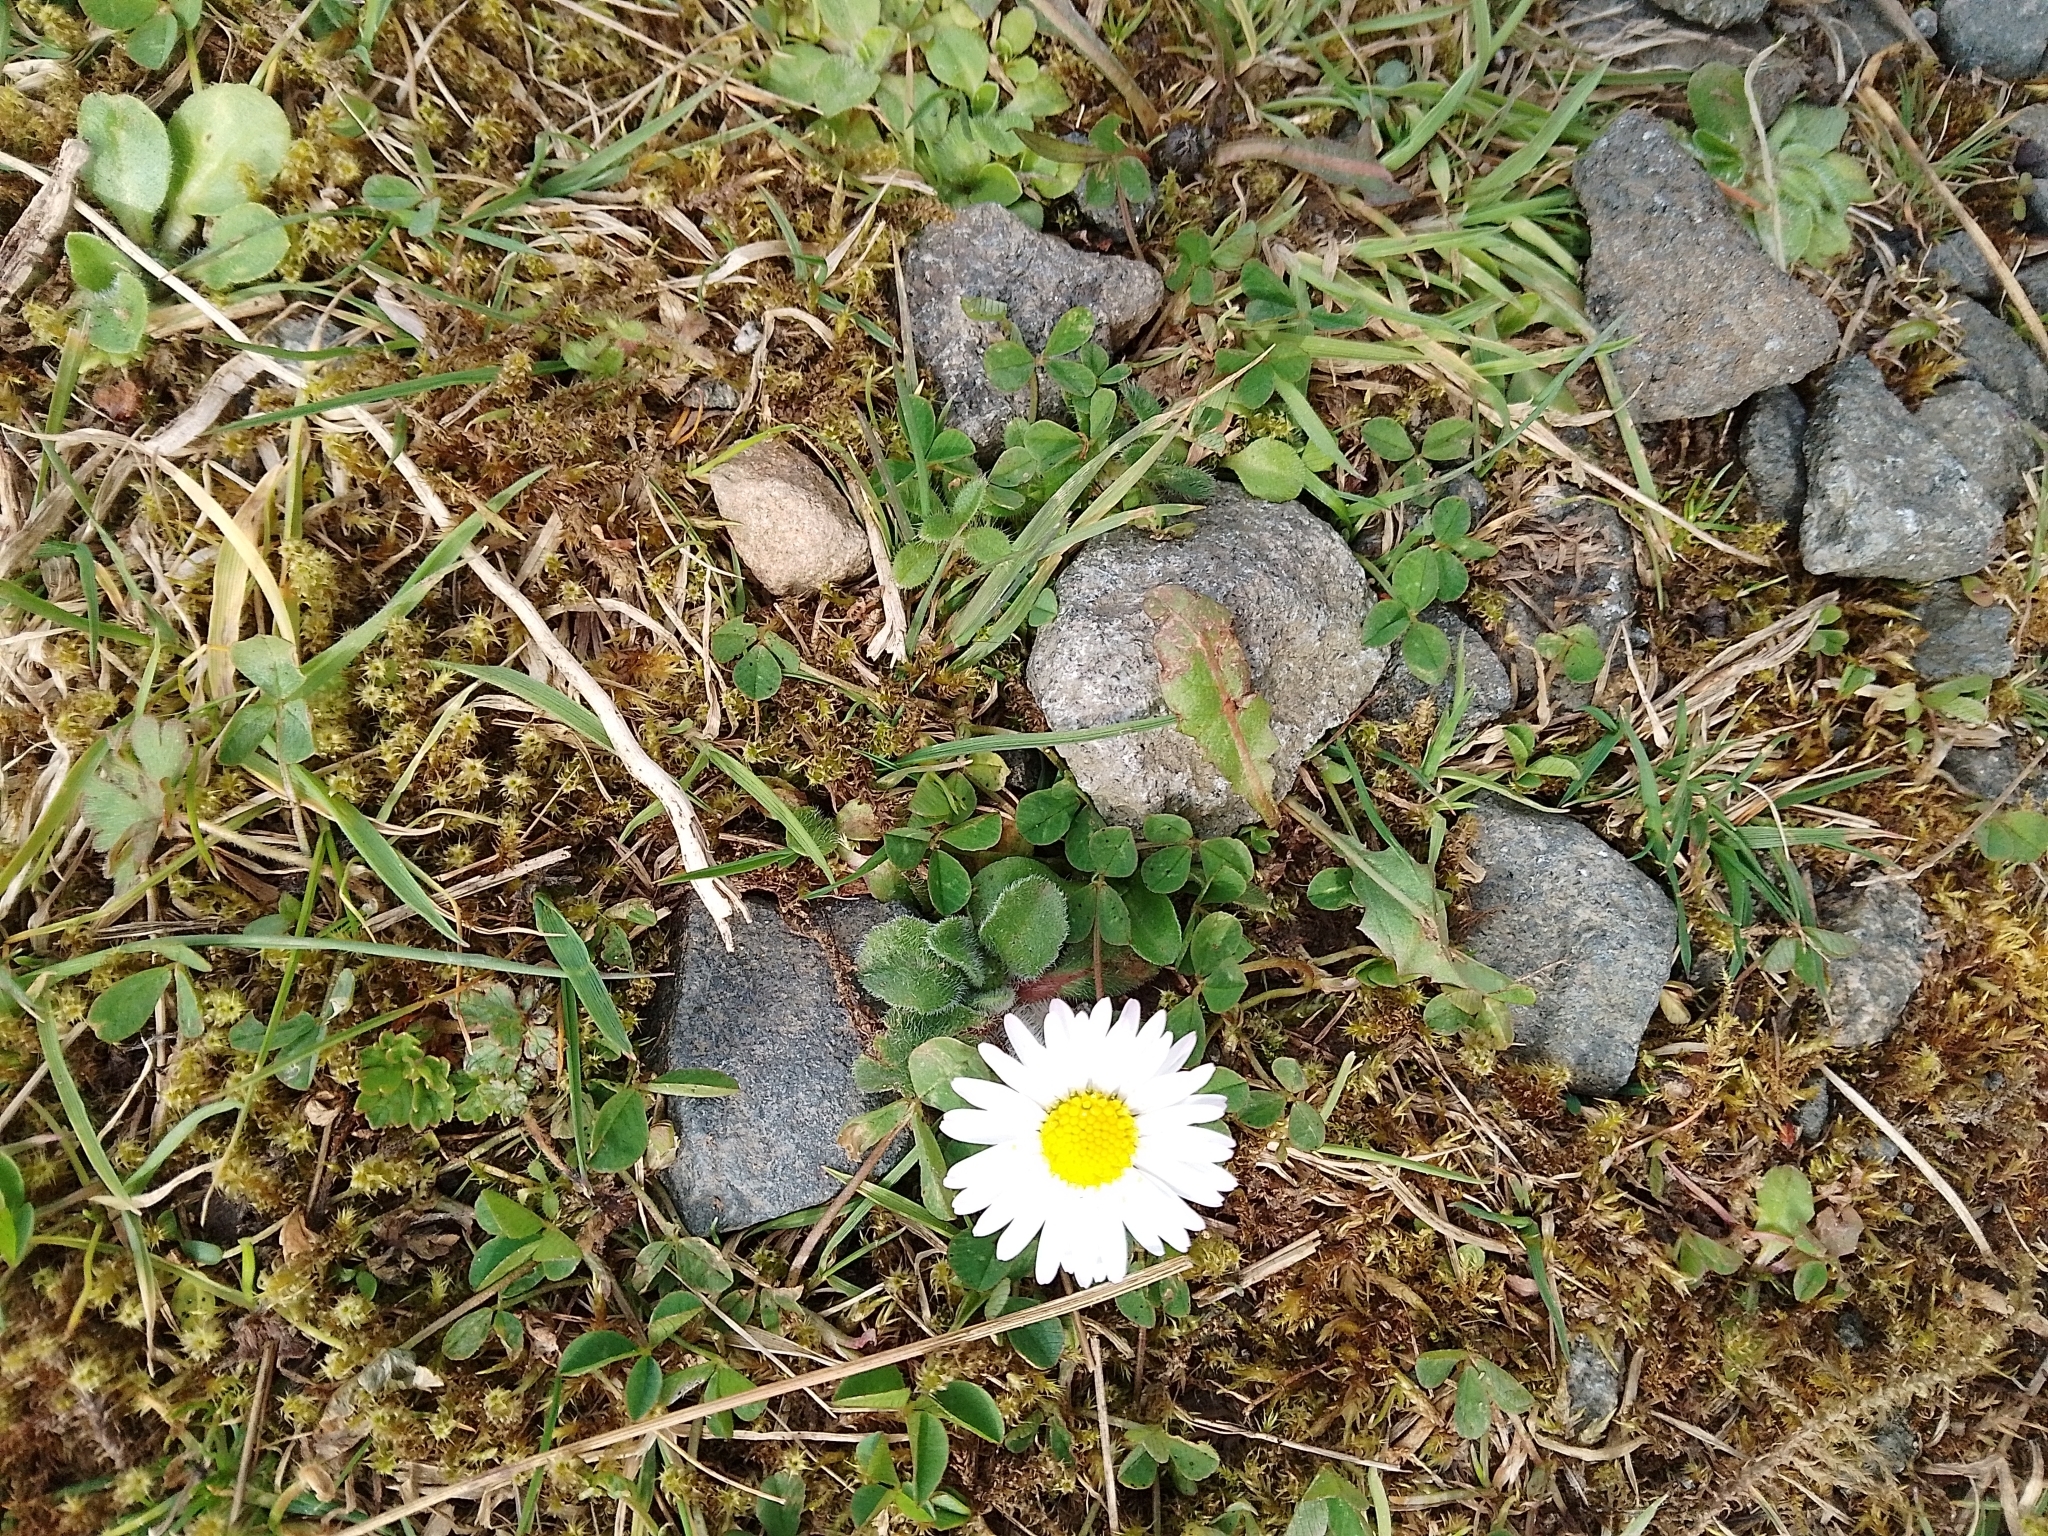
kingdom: Plantae
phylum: Tracheophyta
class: Magnoliopsida
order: Asterales
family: Asteraceae
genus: Bellis
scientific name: Bellis perennis
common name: Lawndaisy
